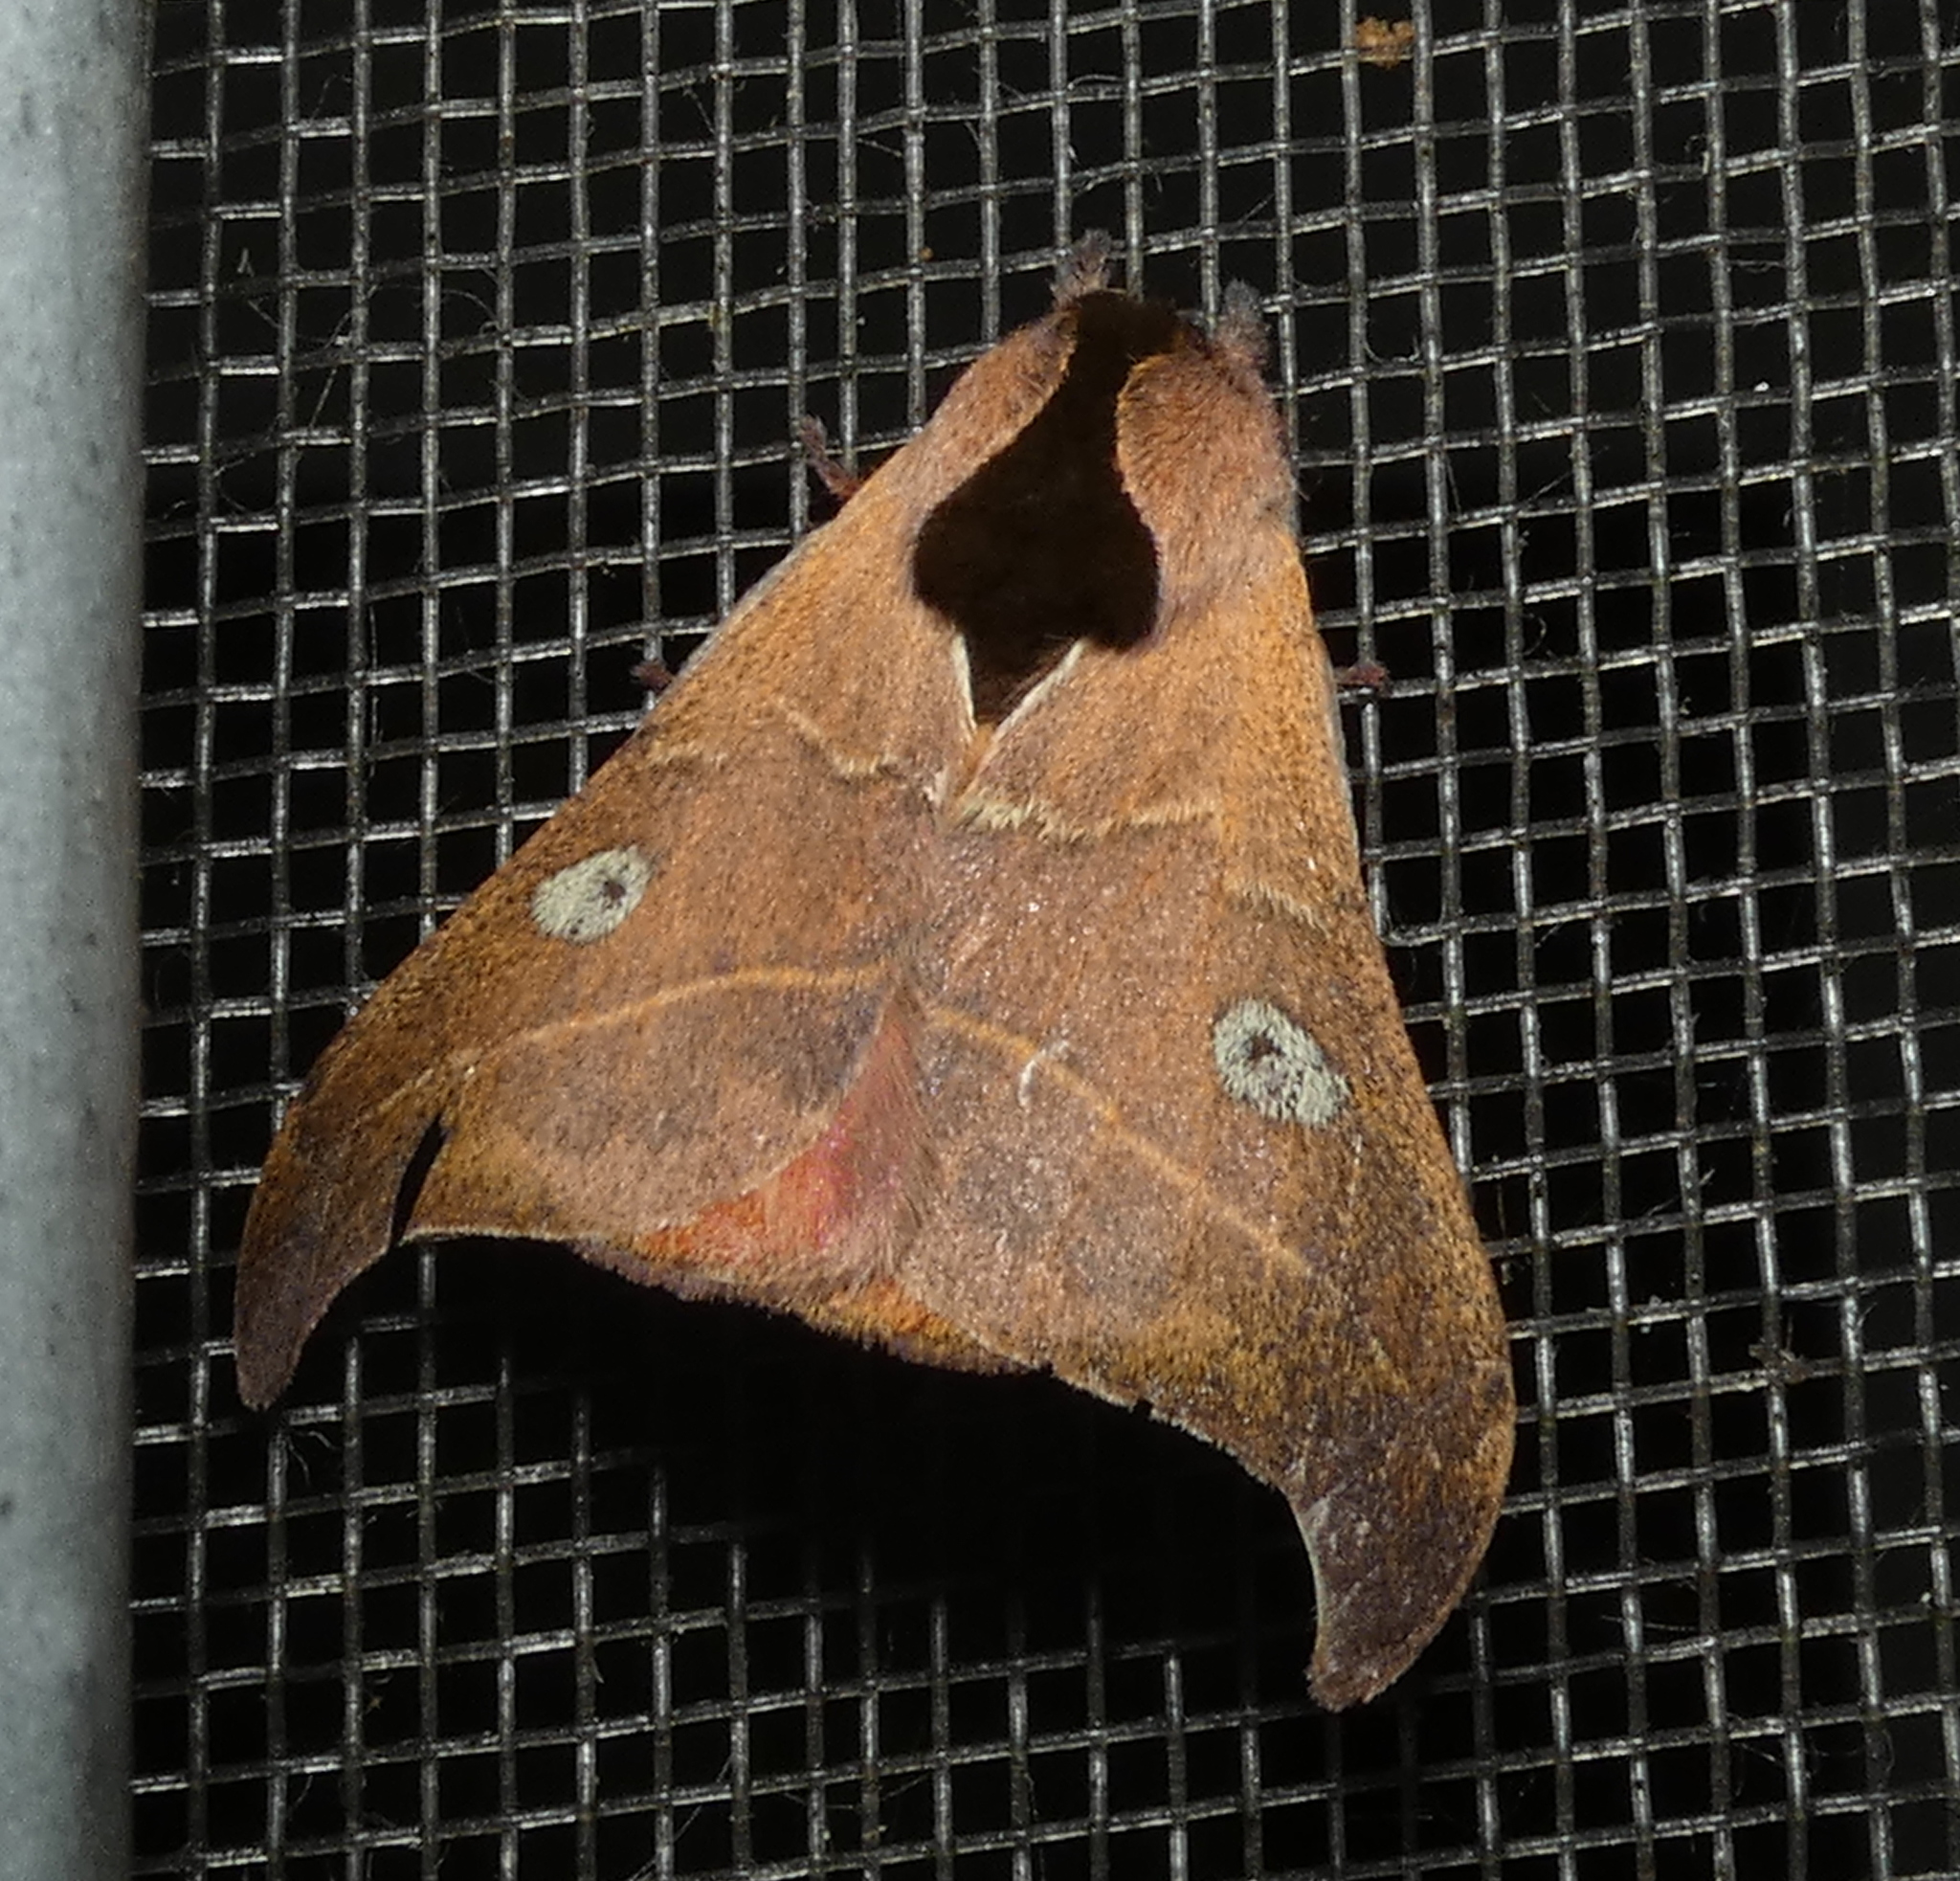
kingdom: Animalia
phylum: Arthropoda
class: Insecta
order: Lepidoptera
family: Saturniidae
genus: Hylesia
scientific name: Hylesia nanus
